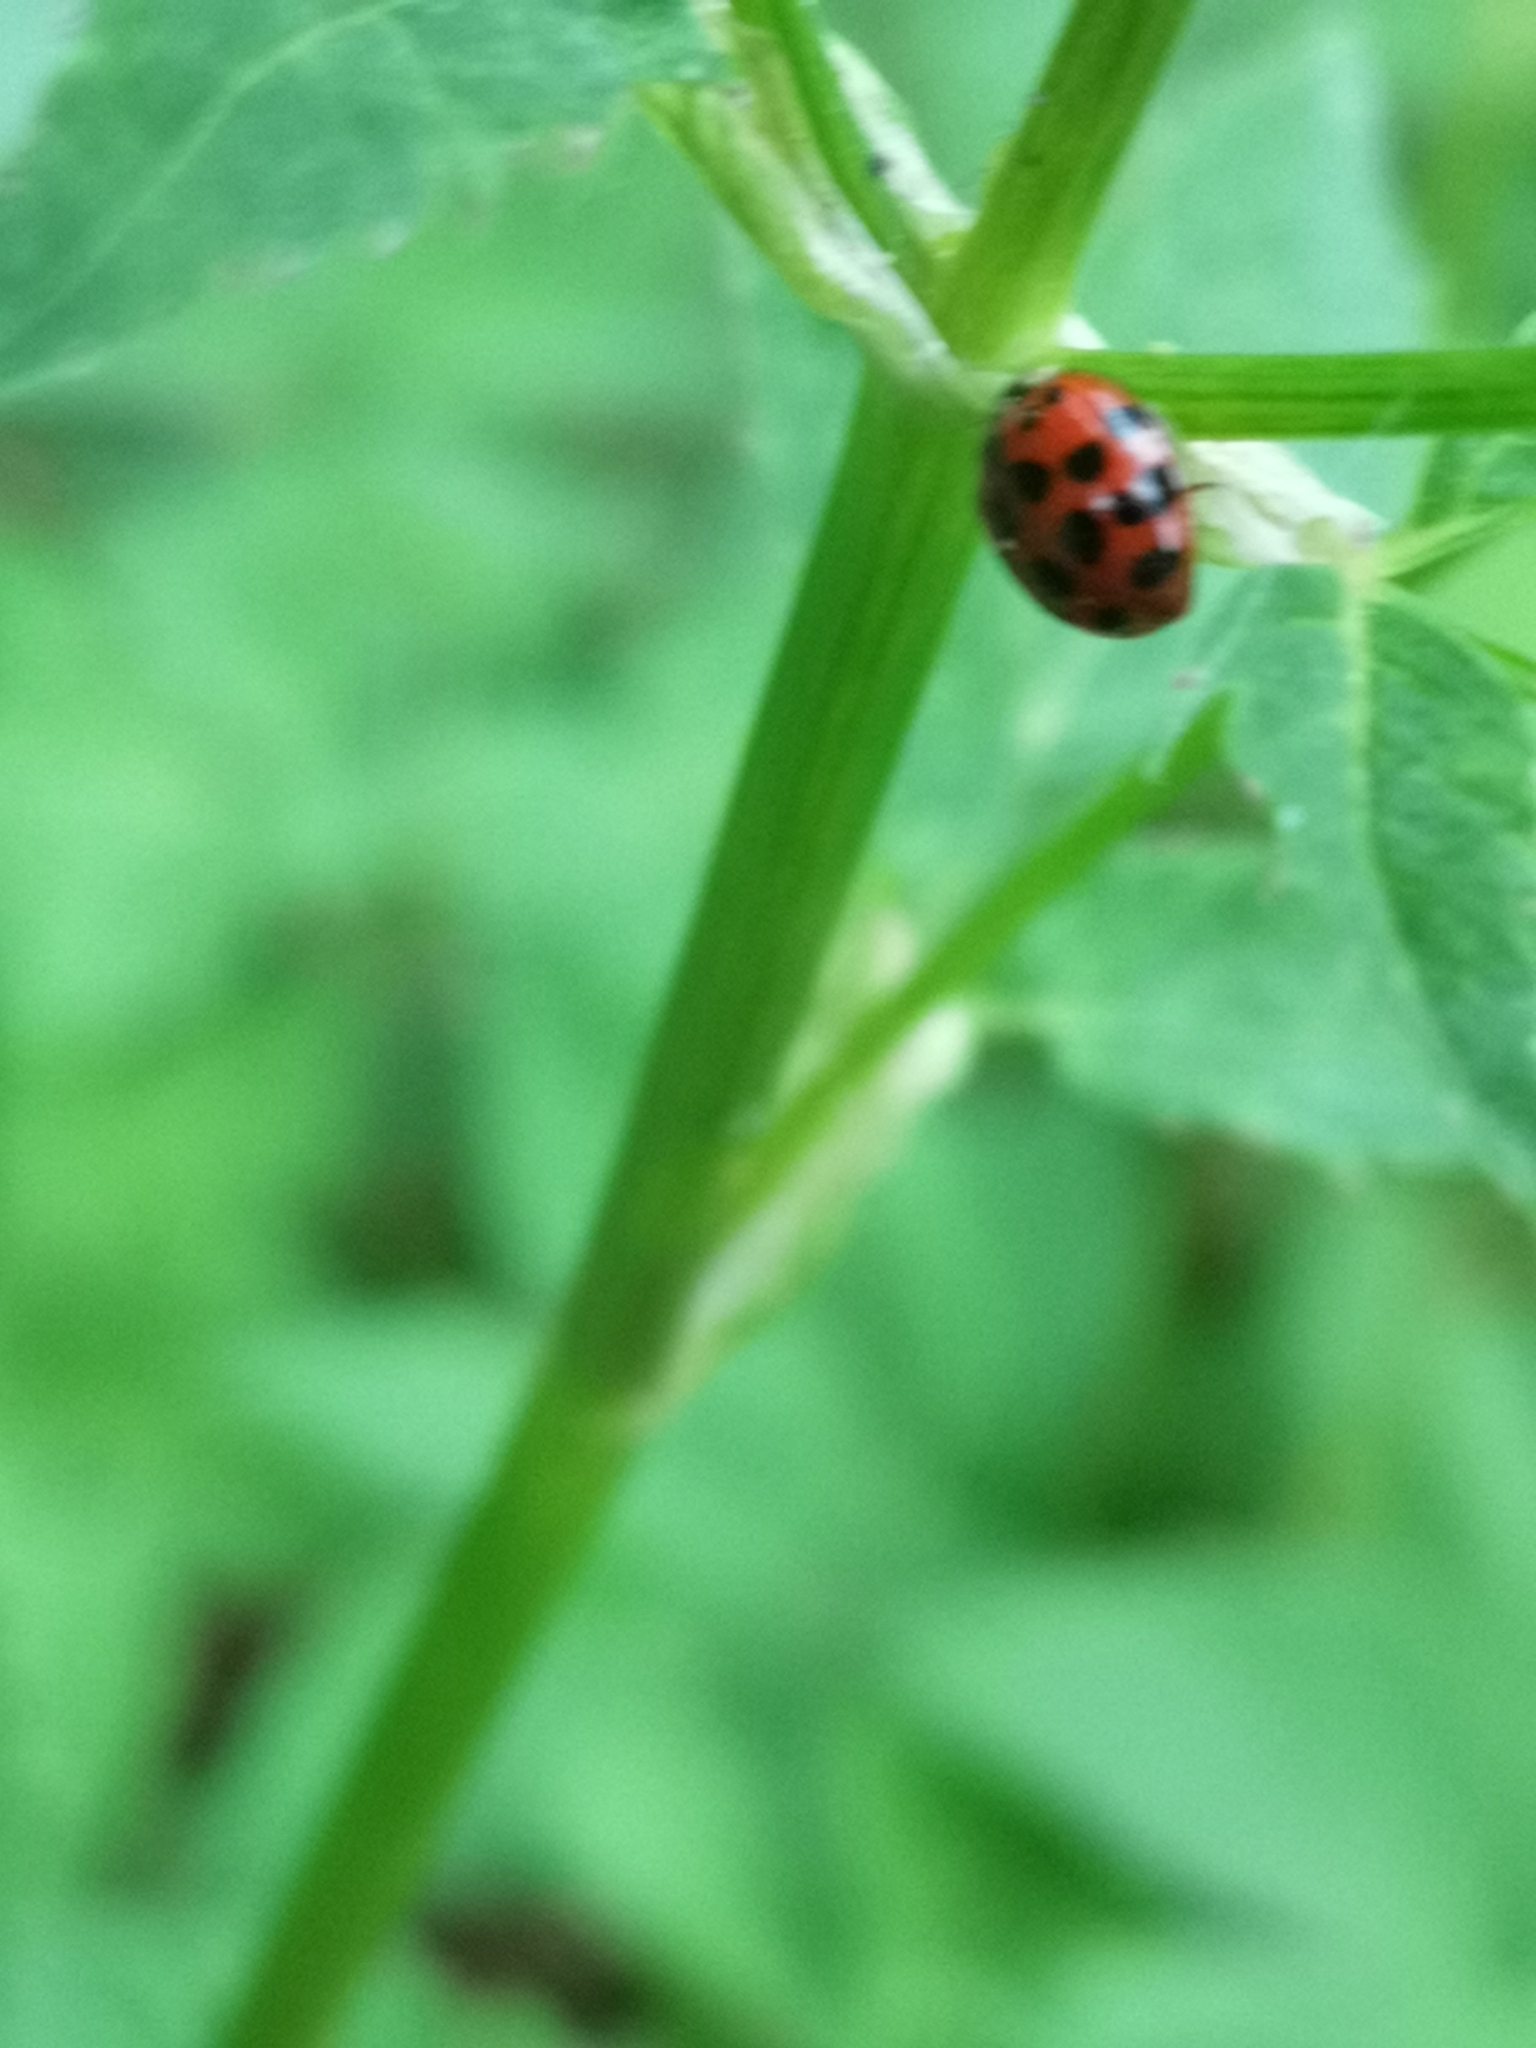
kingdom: Animalia
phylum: Arthropoda
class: Insecta
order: Coleoptera
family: Coccinellidae
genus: Harmonia
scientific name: Harmonia axyridis
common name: Harlequin ladybird
